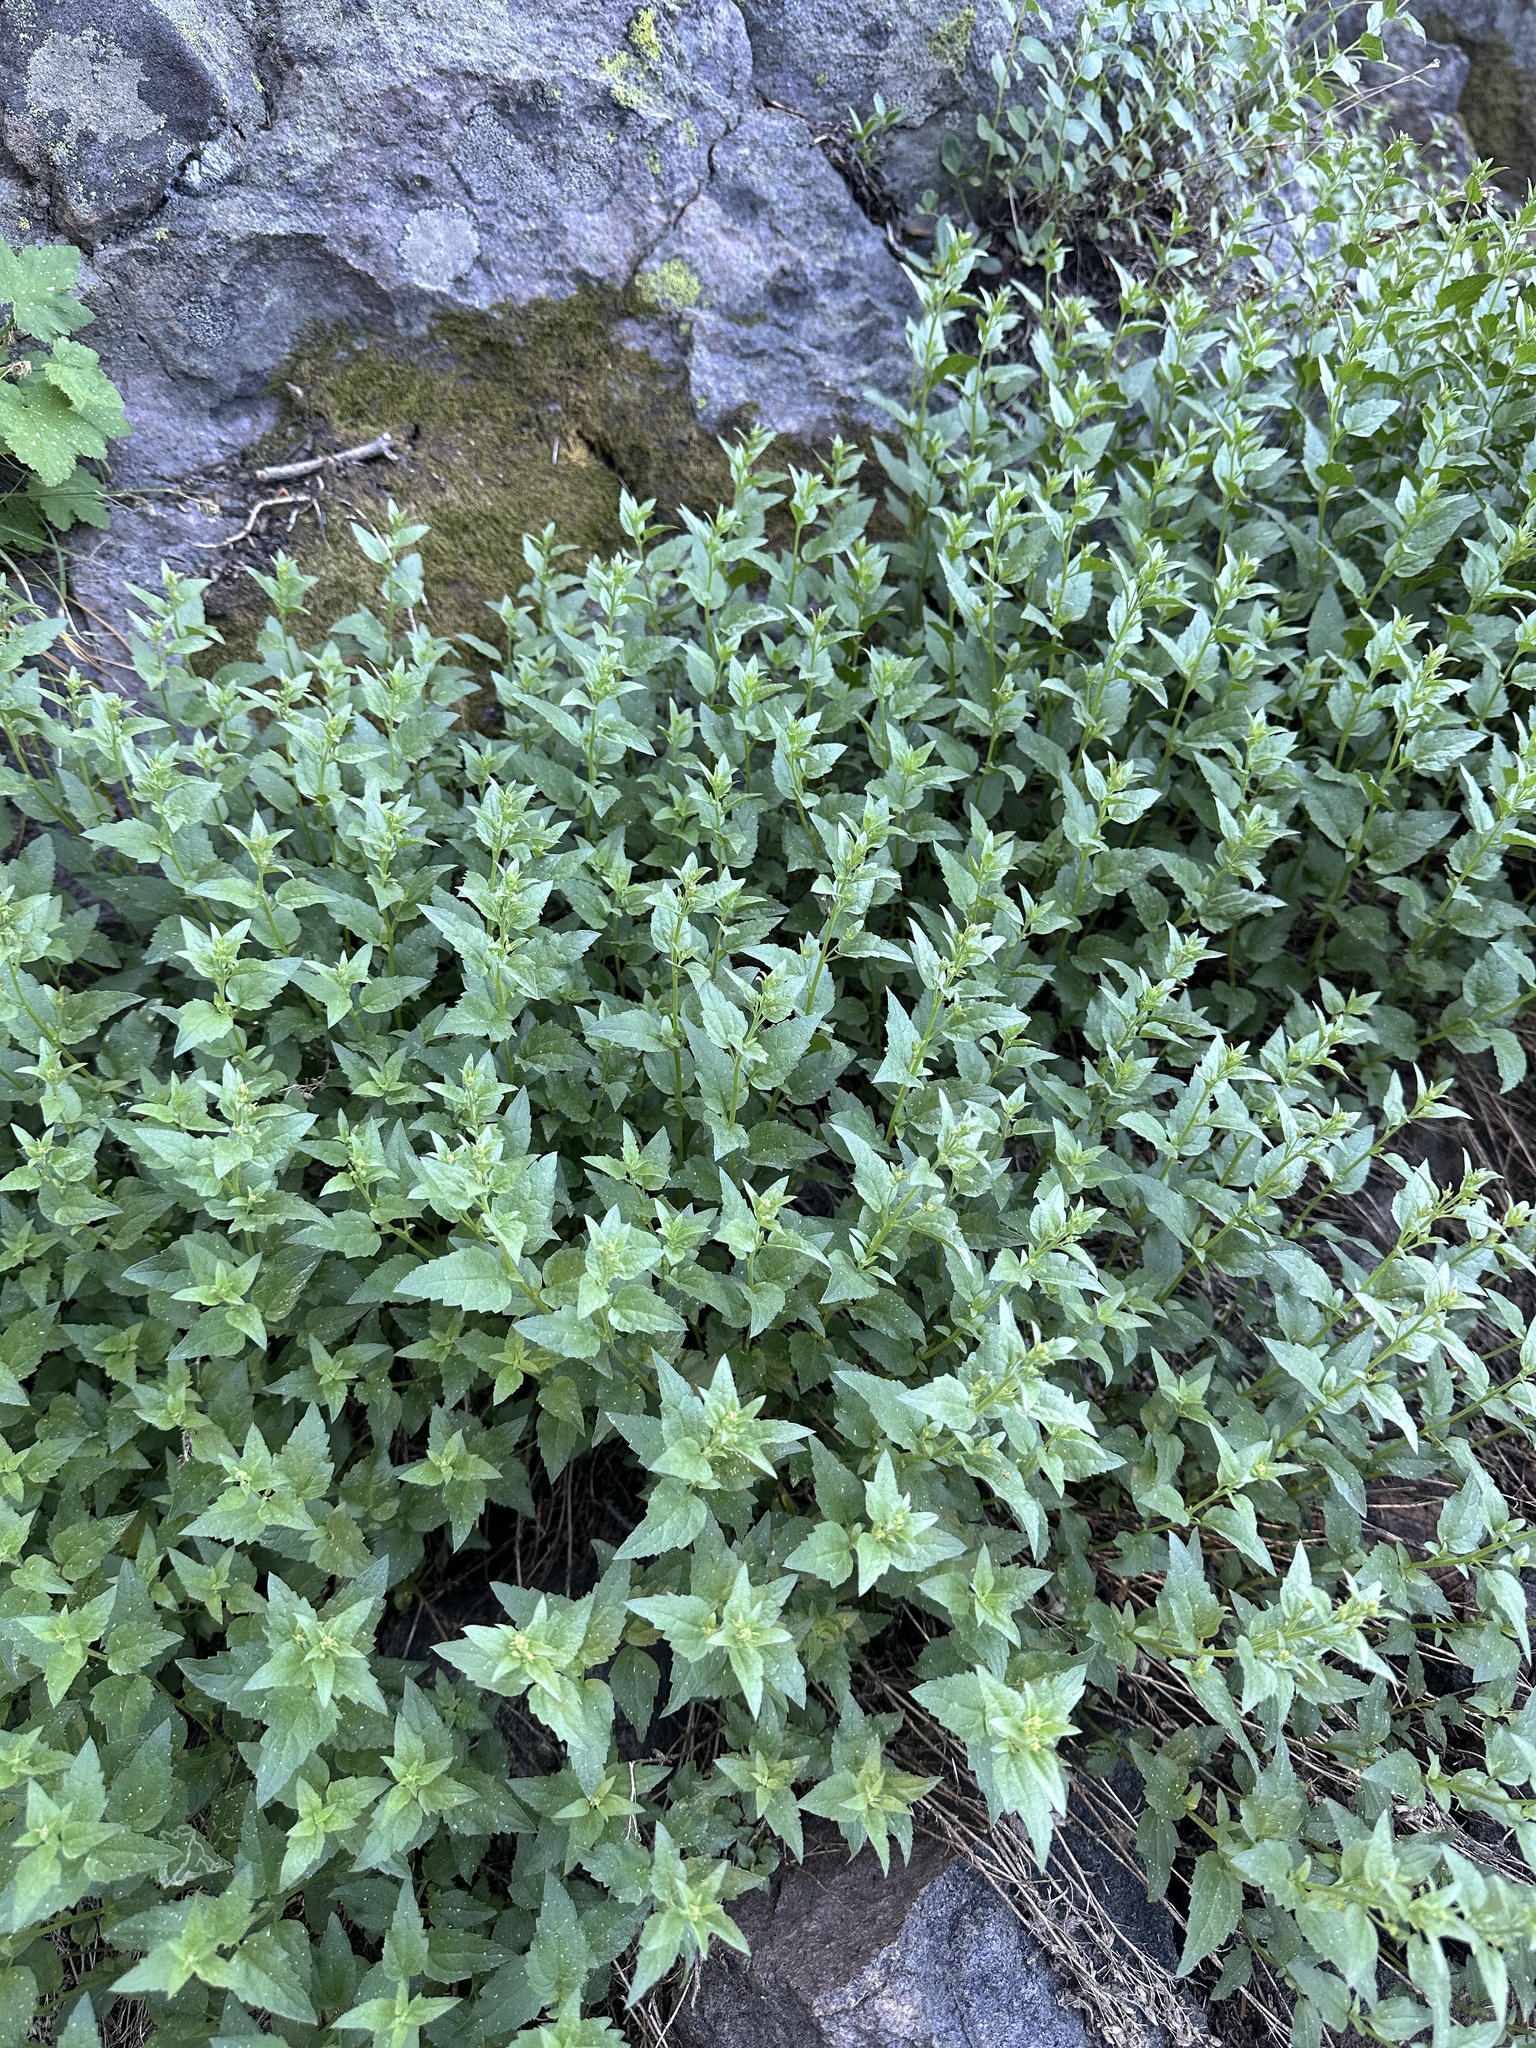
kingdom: Plantae
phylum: Tracheophyta
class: Magnoliopsida
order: Asterales
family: Asteraceae
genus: Ageratina
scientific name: Ageratina occidentalis
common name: Western snakeroot
